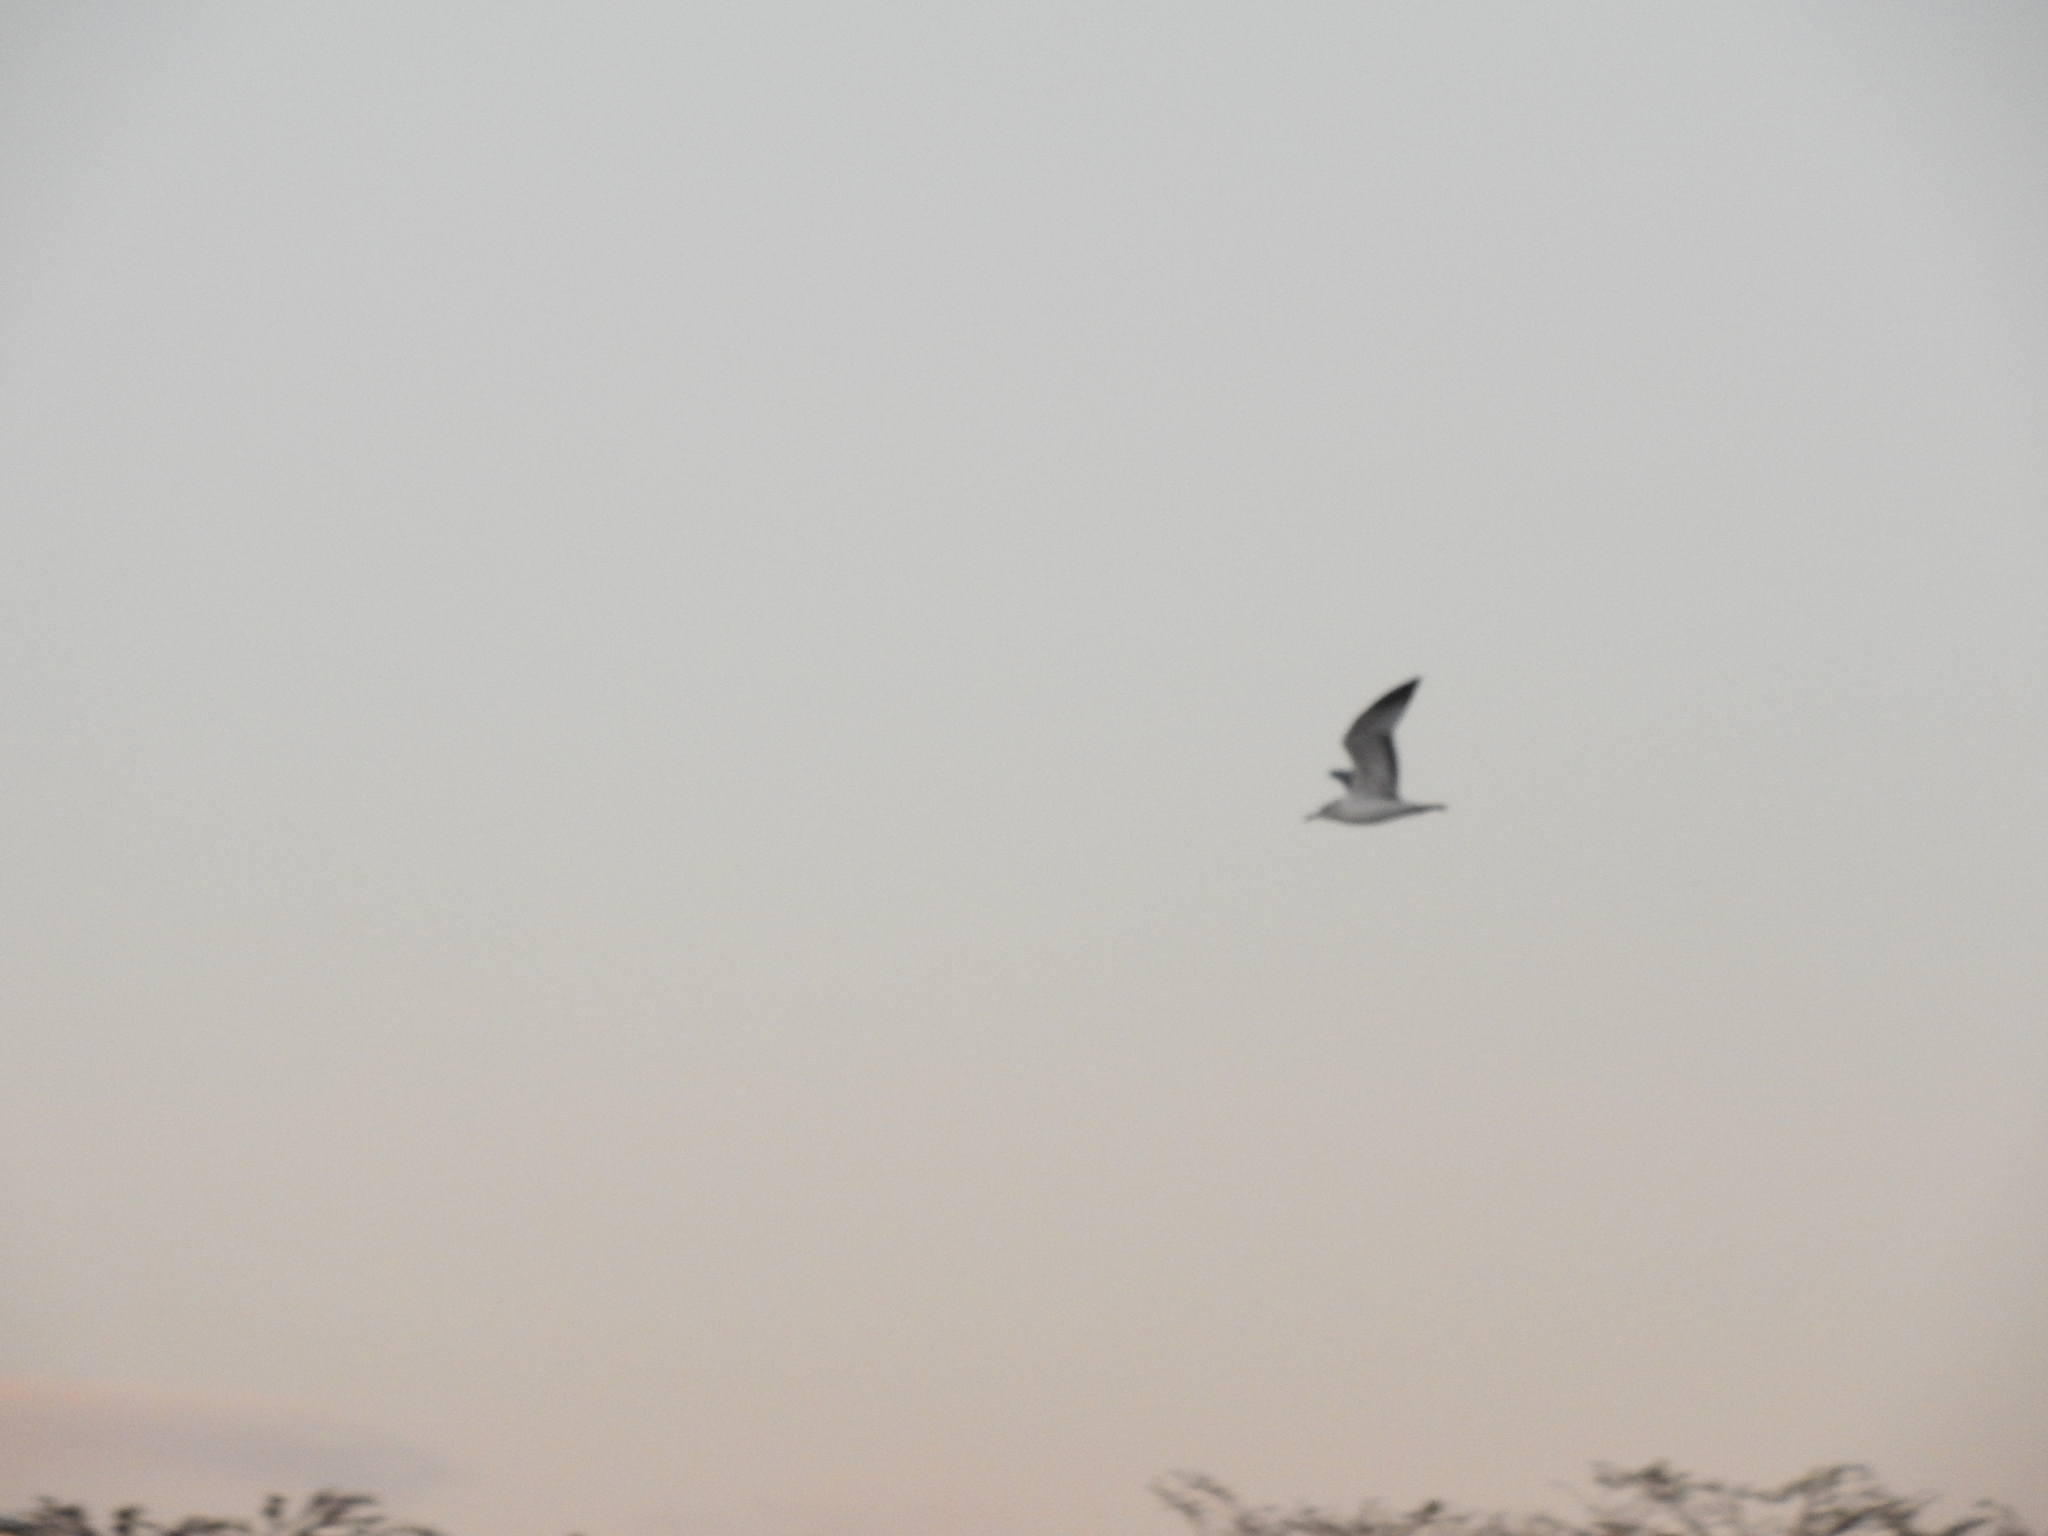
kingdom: Animalia
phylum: Chordata
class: Aves
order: Charadriiformes
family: Laridae
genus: Larus
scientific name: Larus delawarensis
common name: Ring-billed gull
